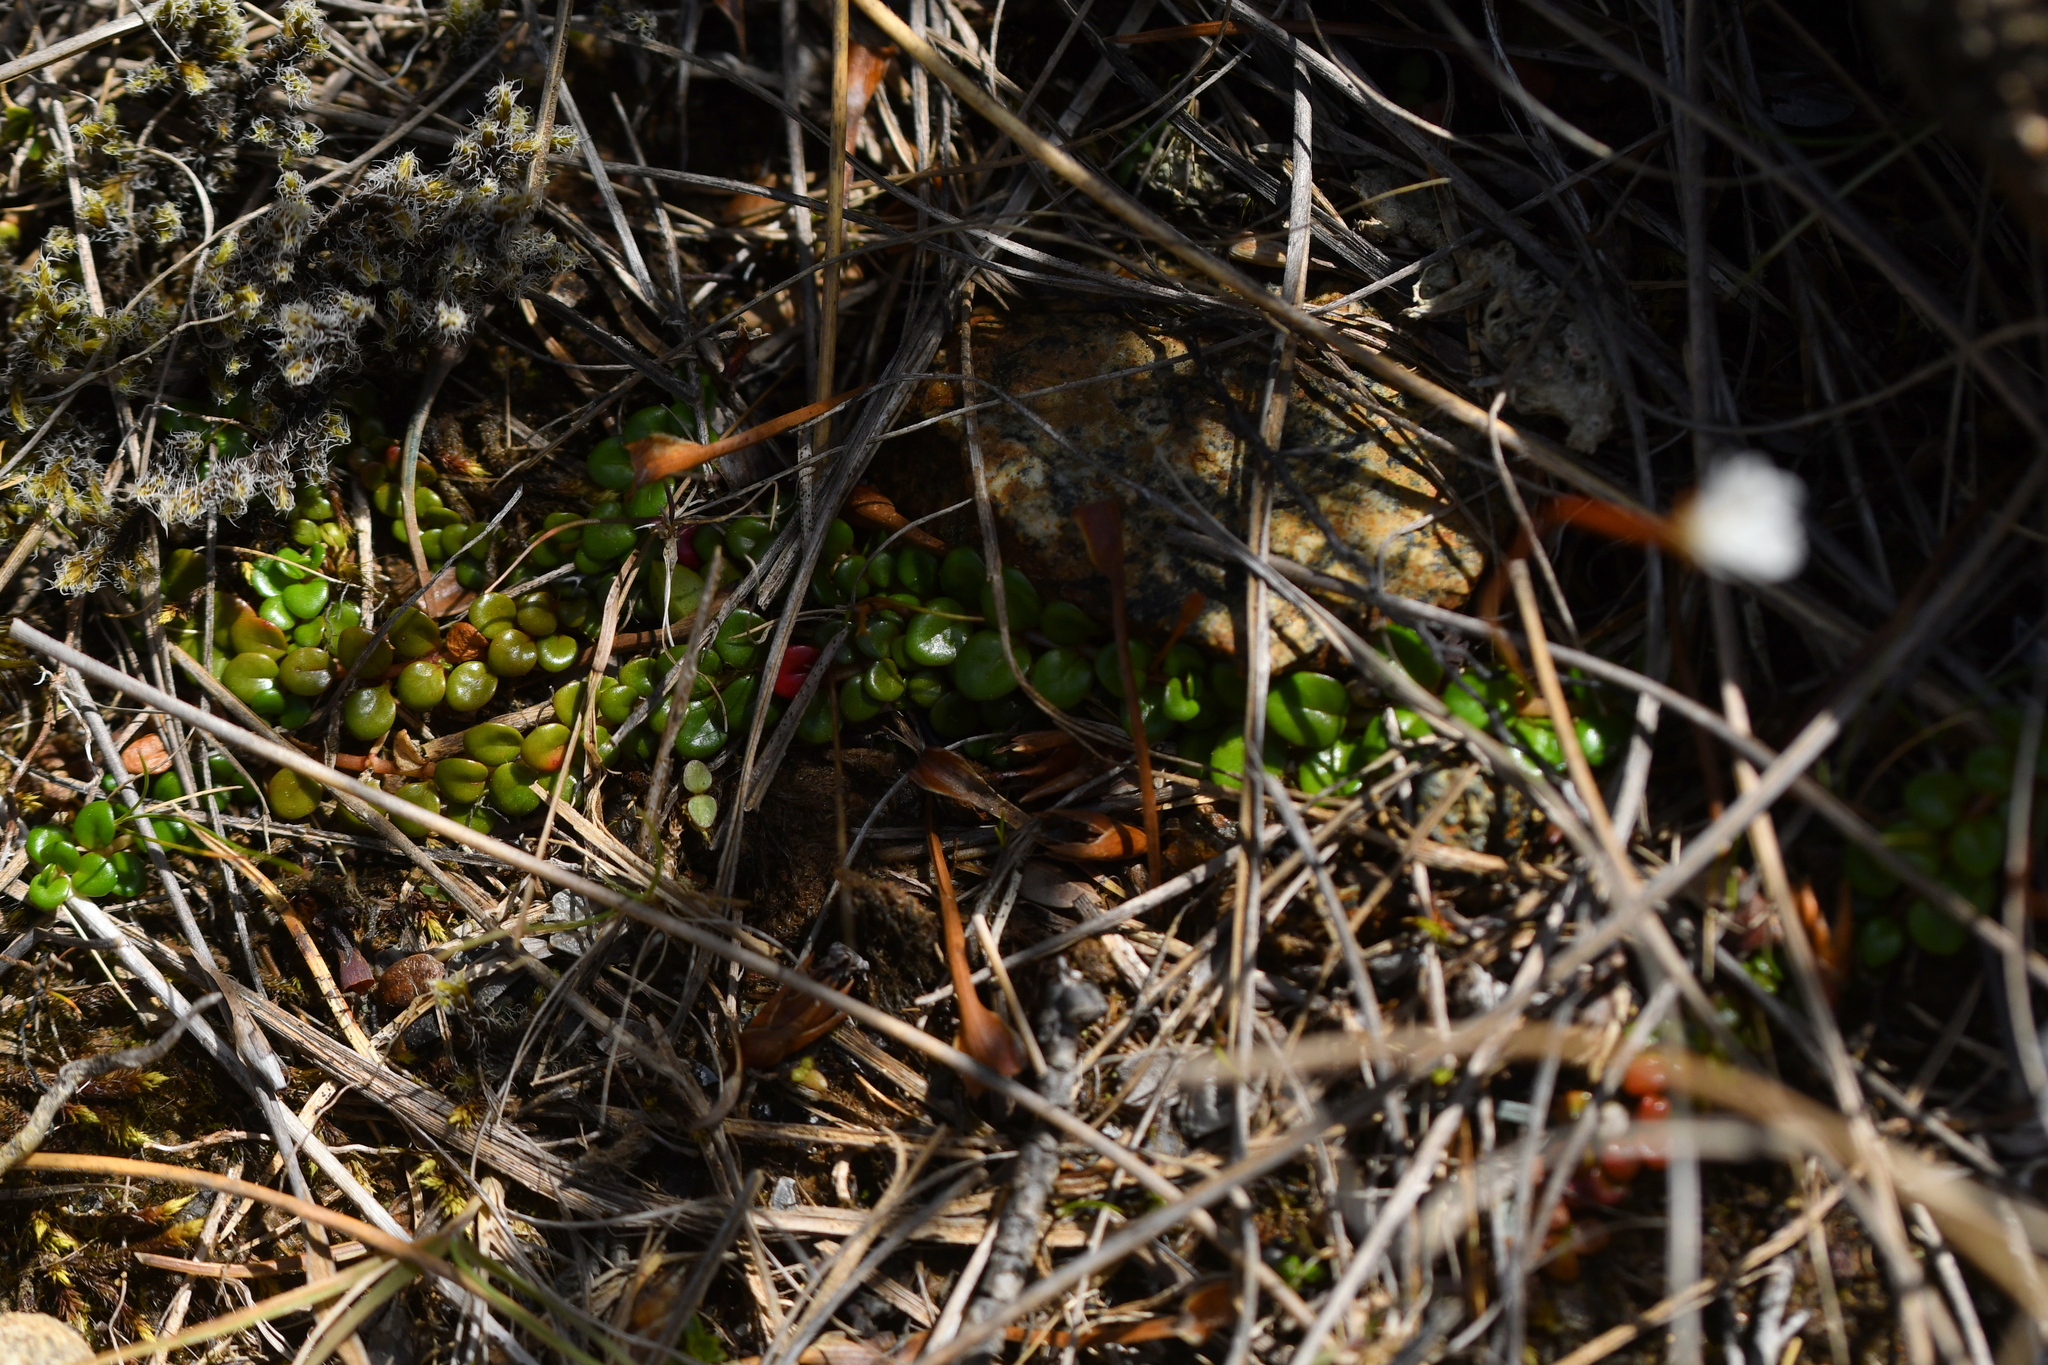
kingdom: Plantae
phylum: Tracheophyta
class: Magnoliopsida
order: Myrtales
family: Onagraceae
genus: Epilobium
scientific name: Epilobium pernitens
